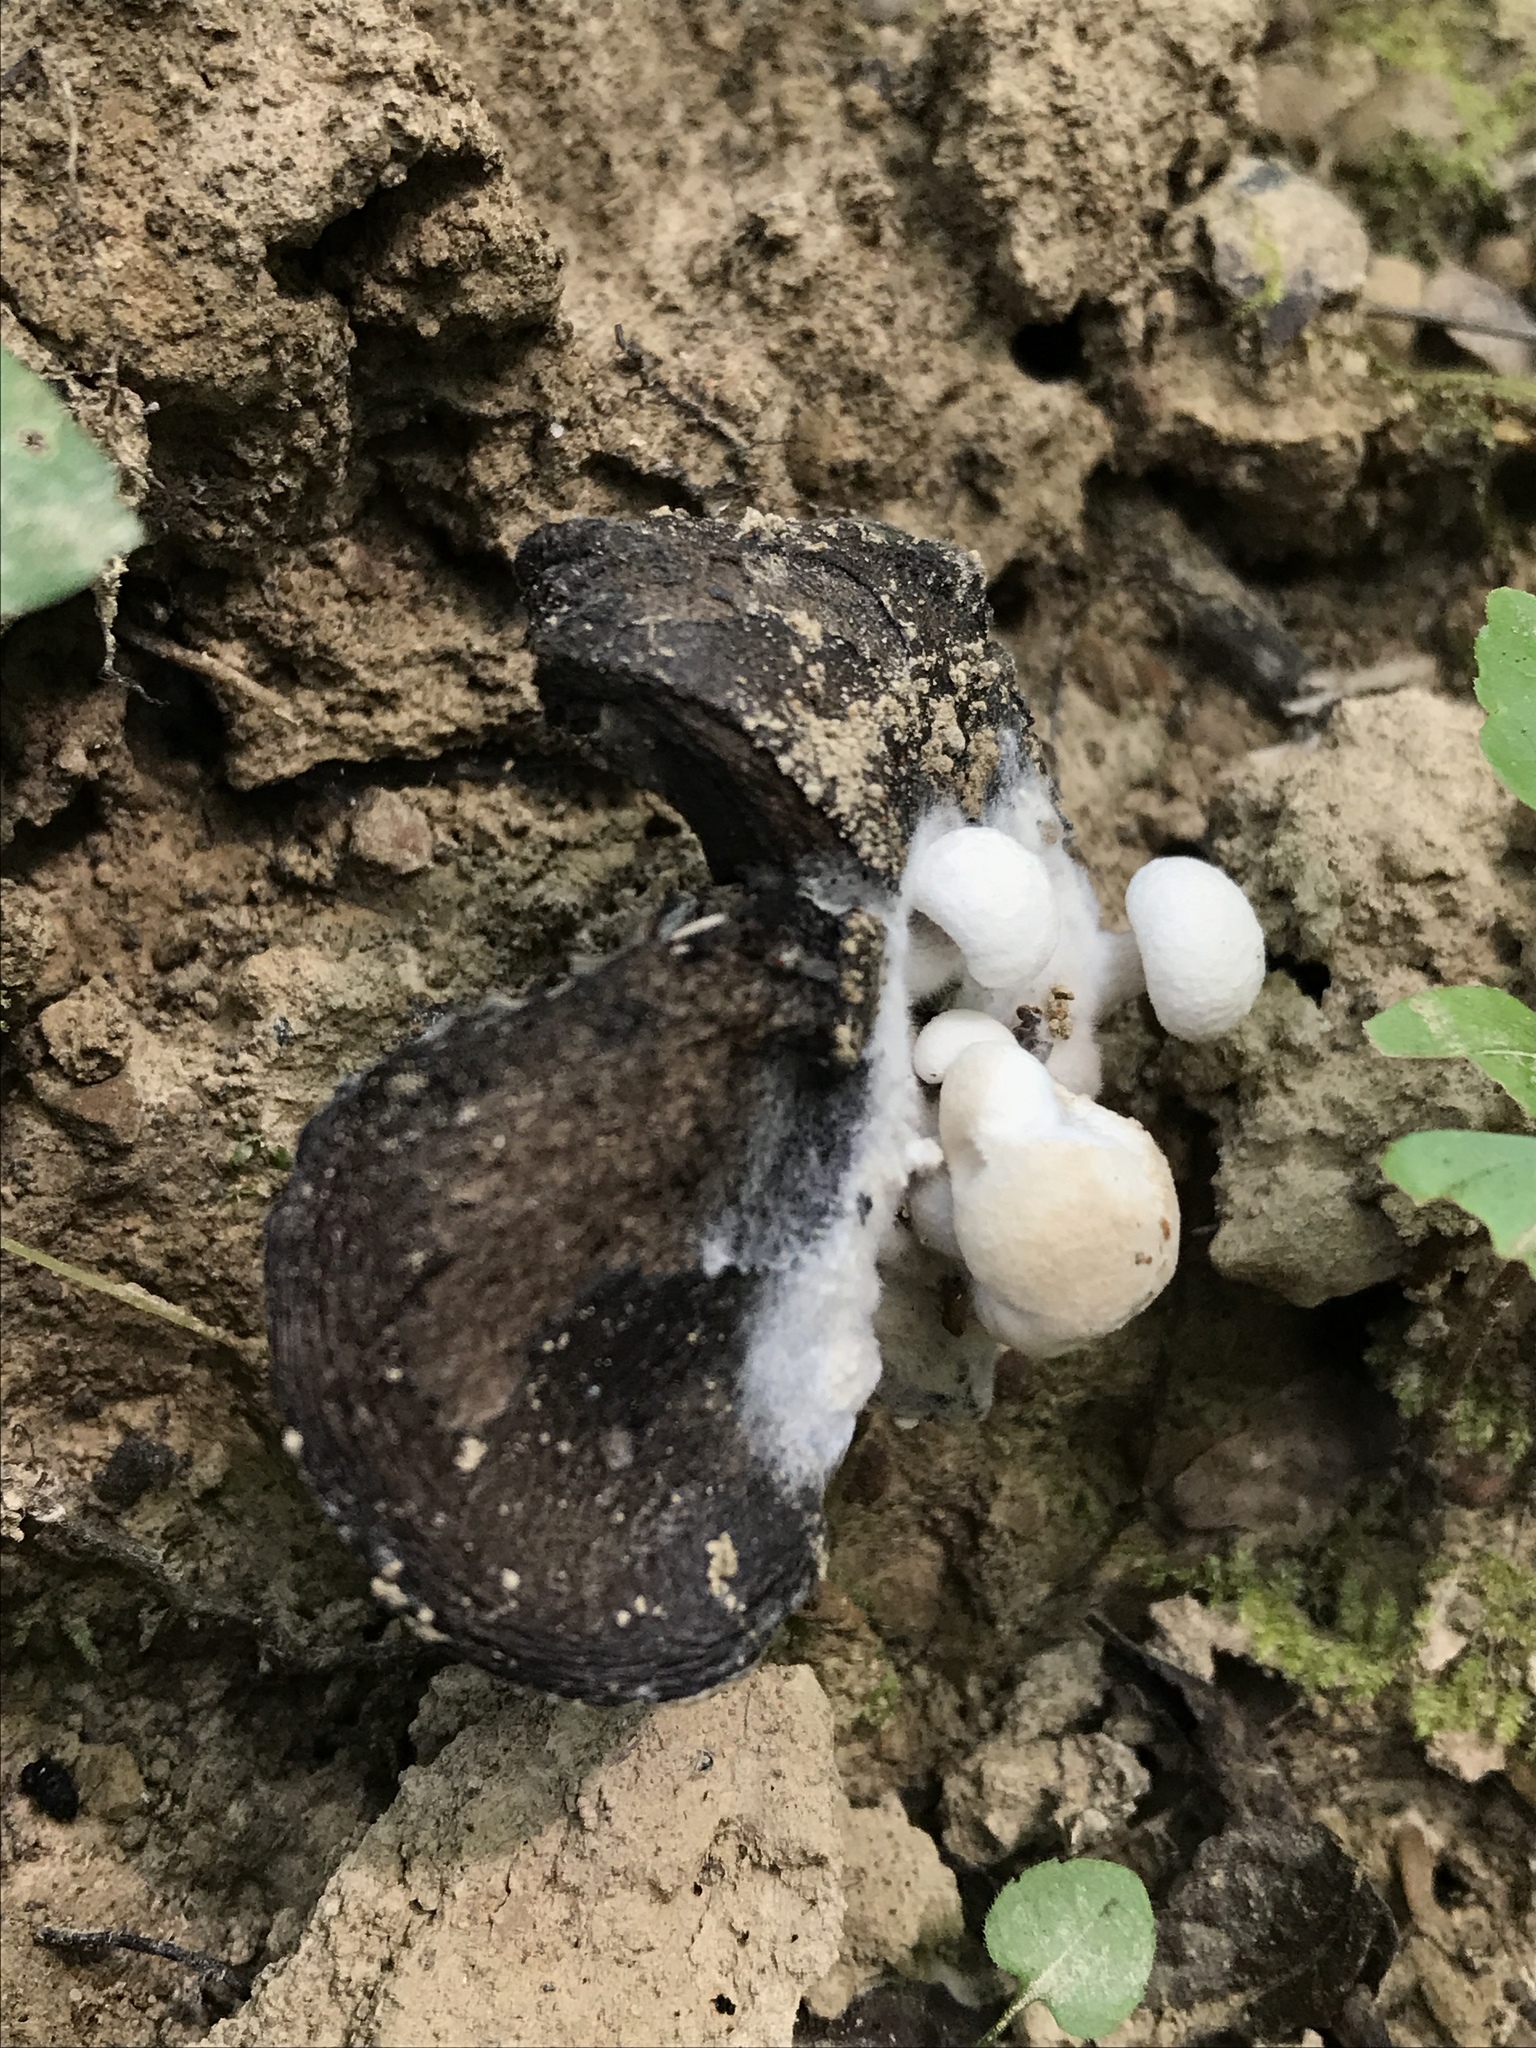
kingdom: Fungi
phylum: Basidiomycota
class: Agaricomycetes
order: Agaricales
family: Lyophyllaceae
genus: Asterophora
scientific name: Asterophora lycoperdoides
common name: Pick-a-back toadstool
